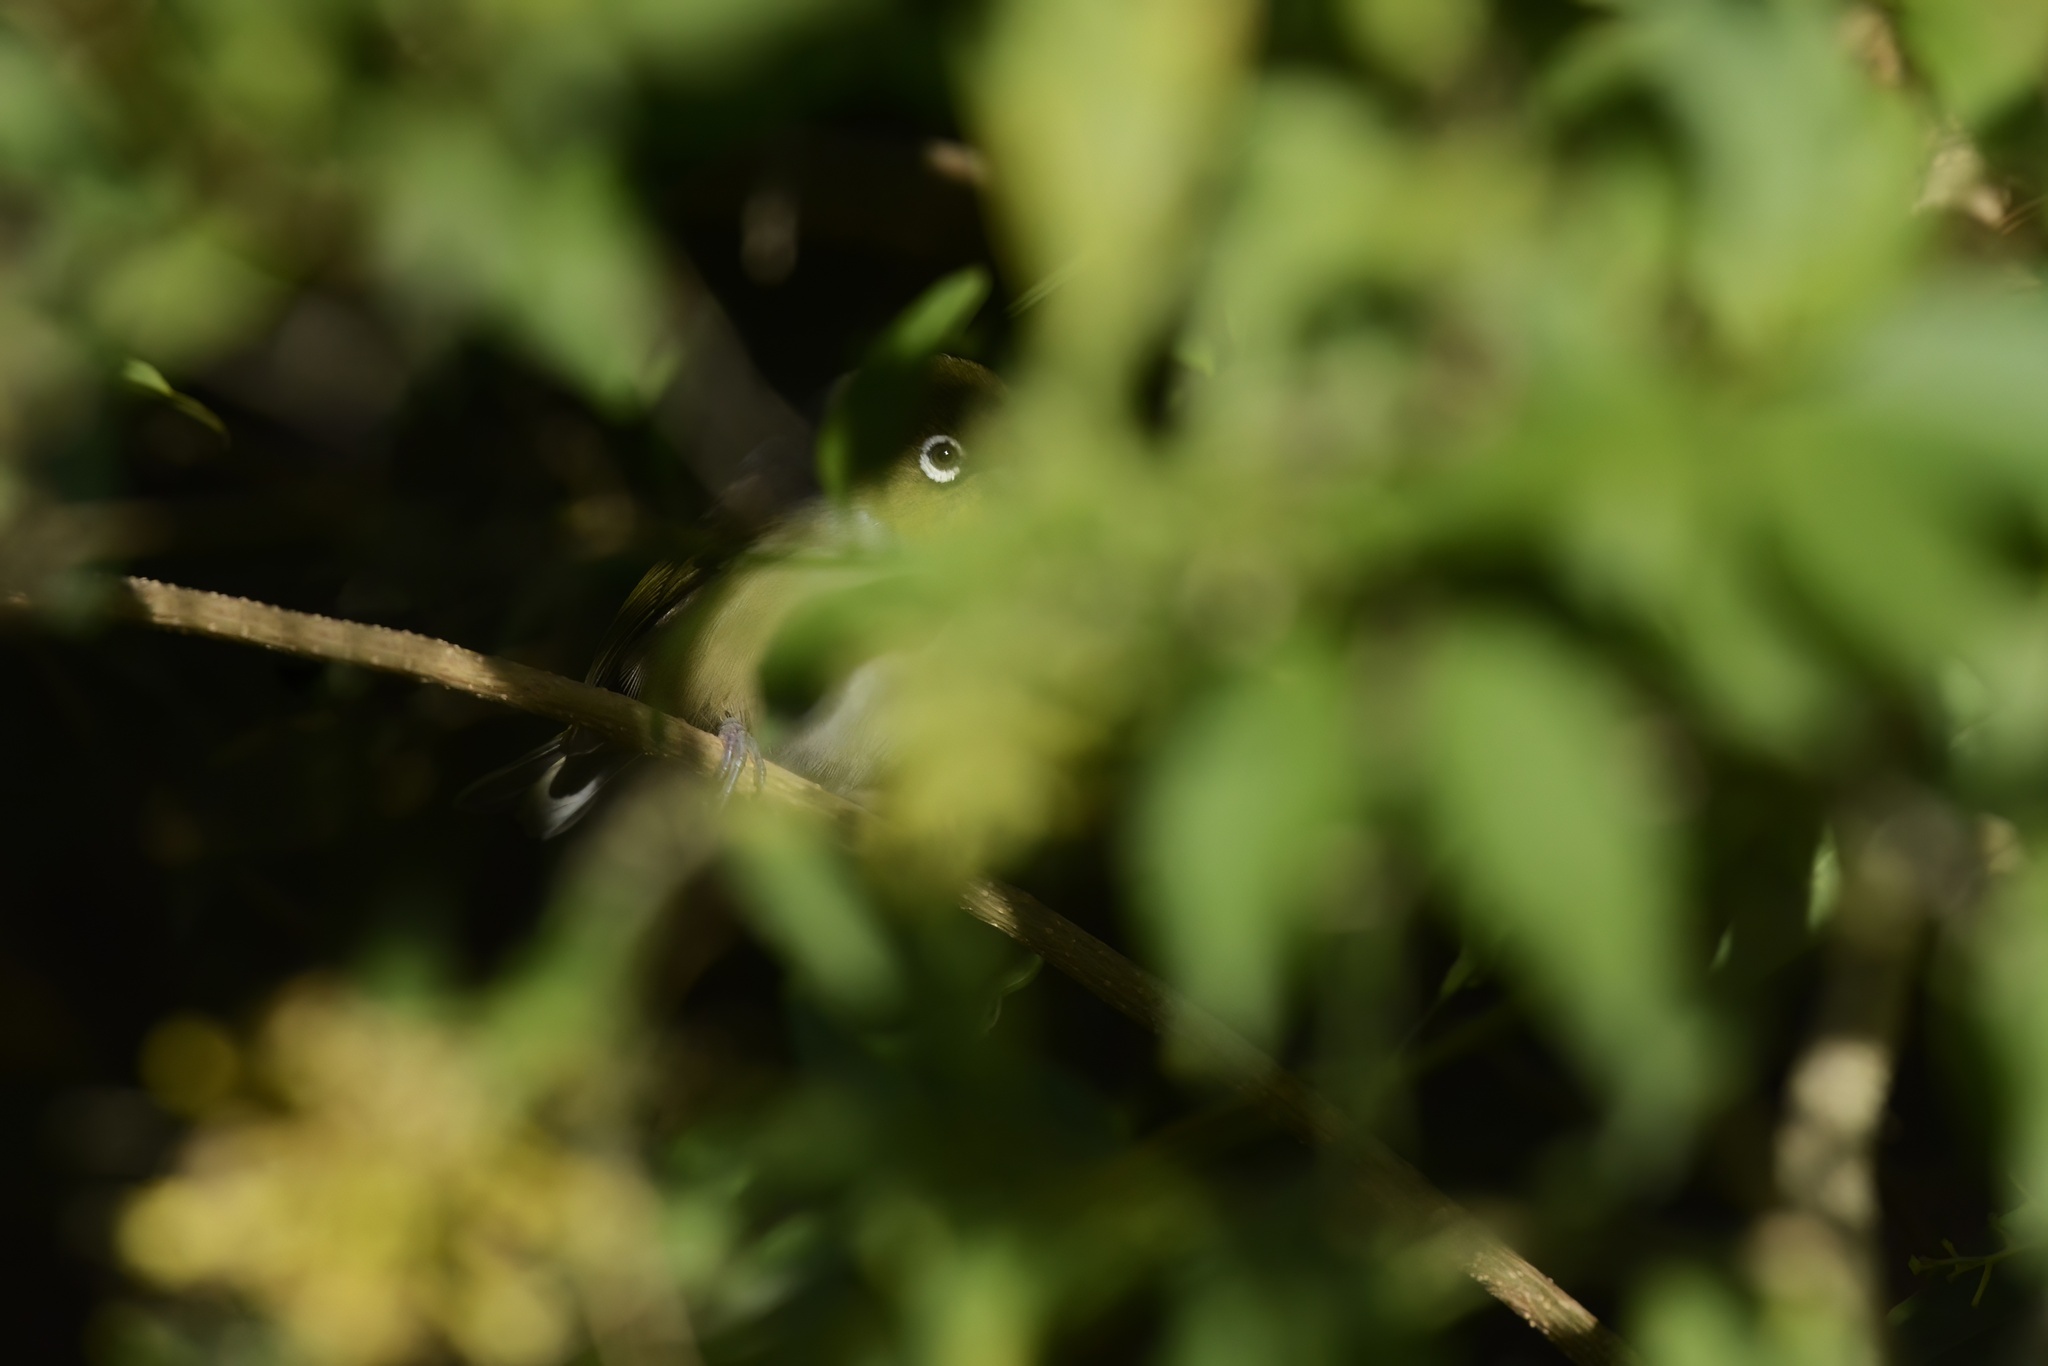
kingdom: Animalia
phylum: Chordata
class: Aves
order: Passeriformes
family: Zosteropidae
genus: Zosterops
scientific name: Zosterops lateralis
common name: Silvereye
